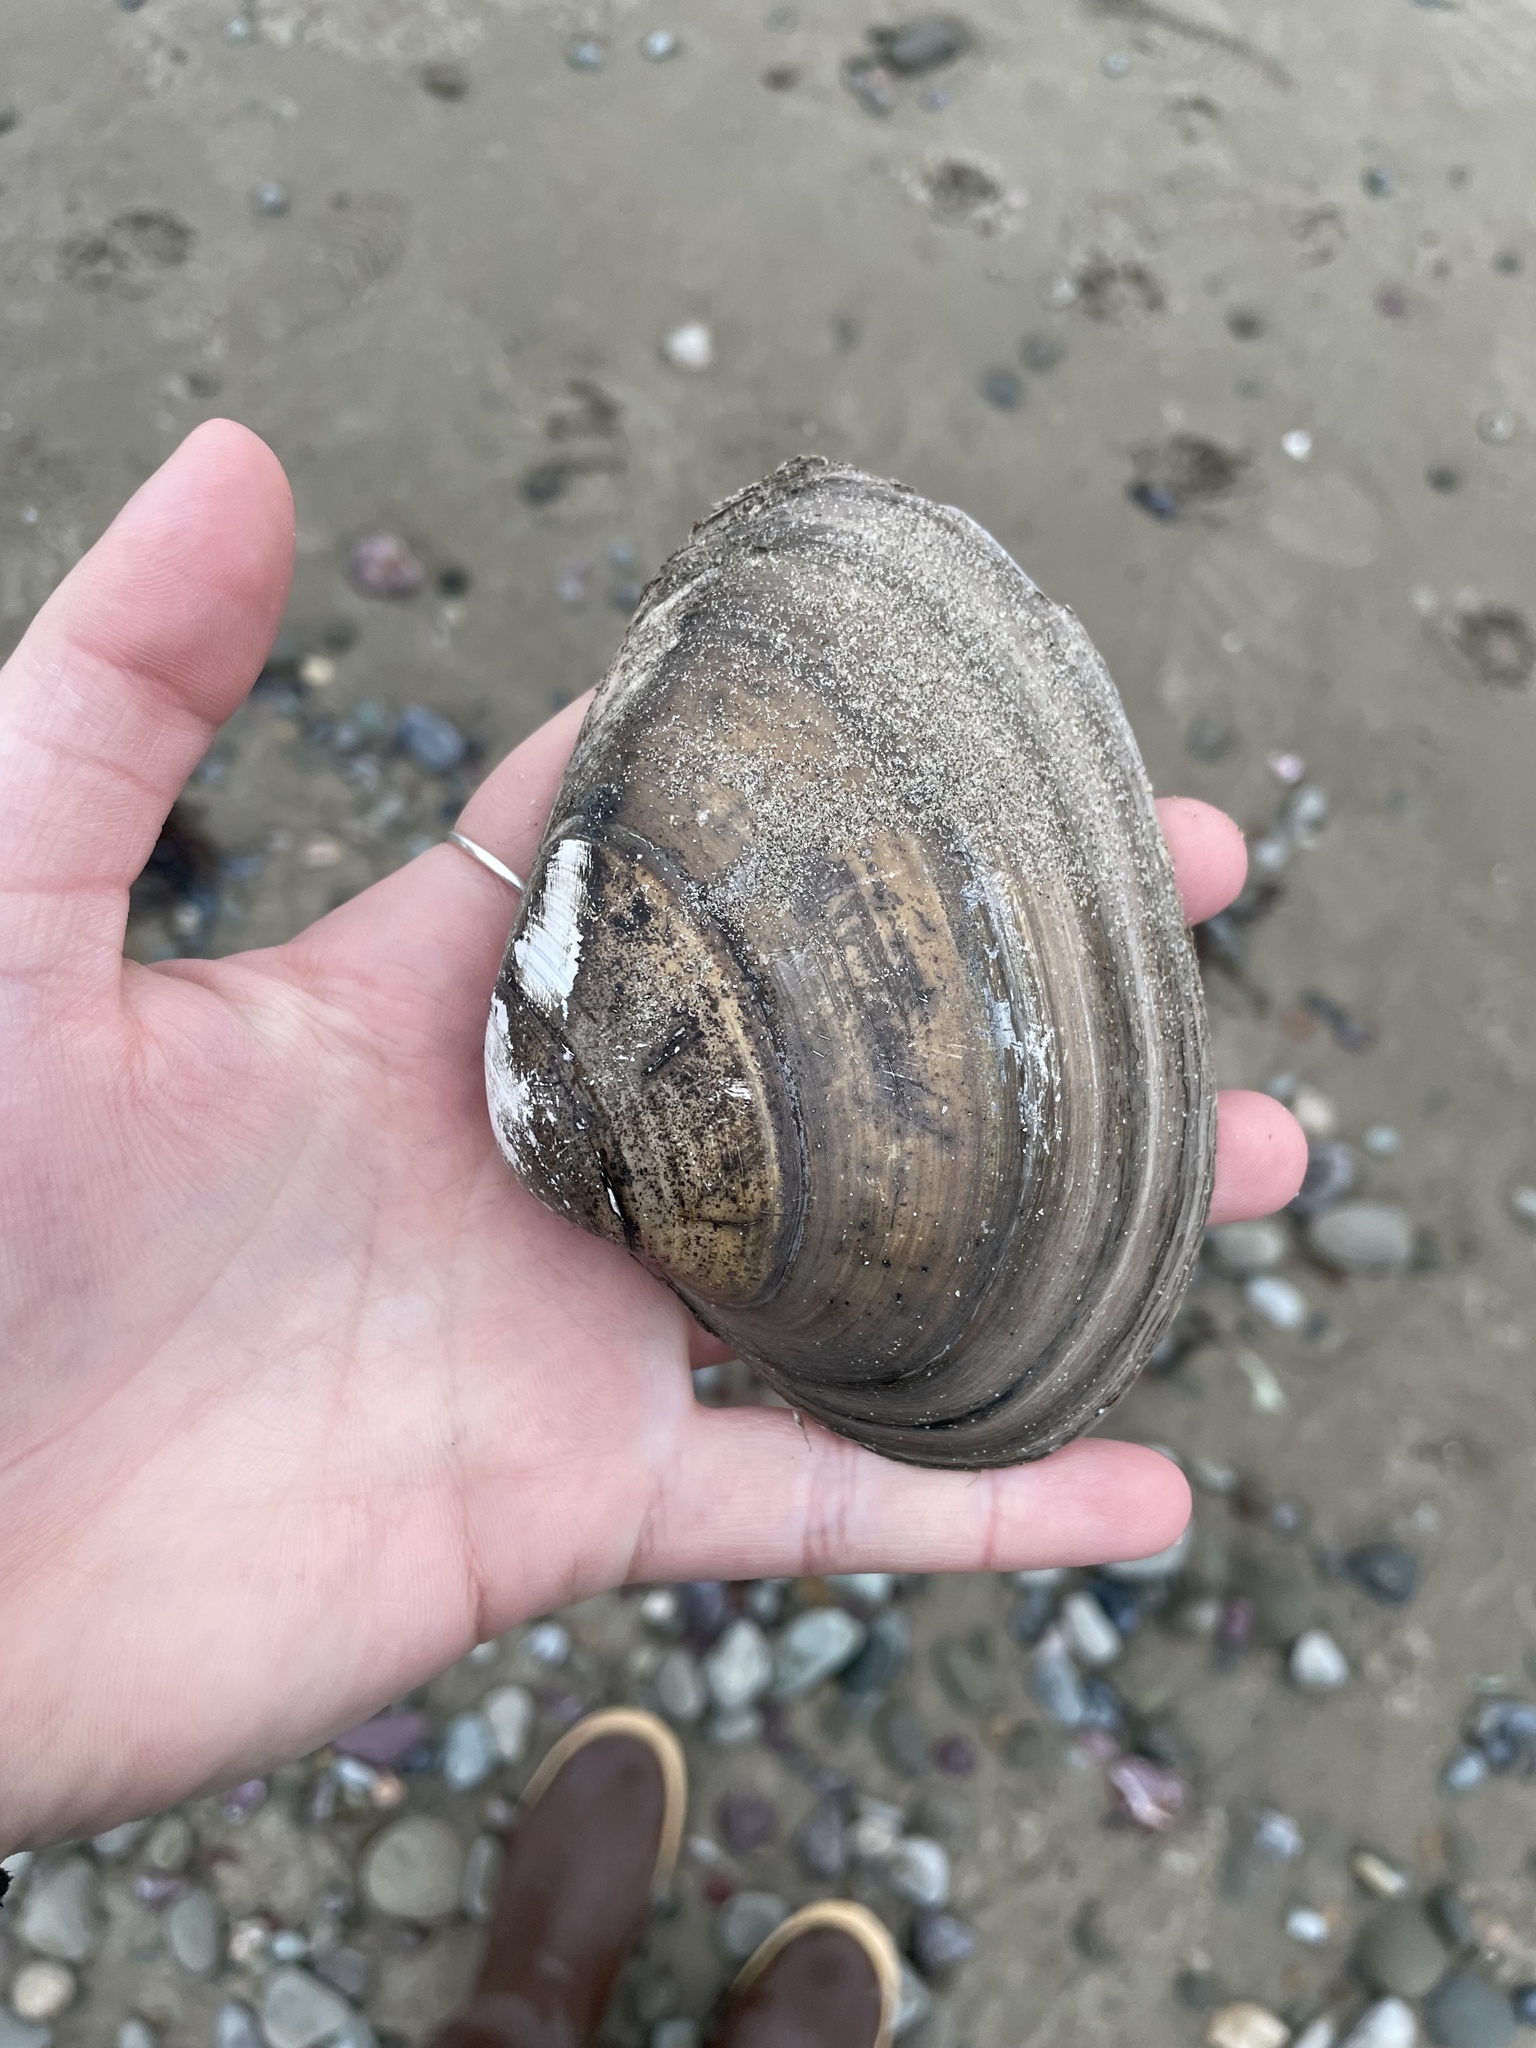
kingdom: Animalia
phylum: Mollusca
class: Bivalvia
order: Venerida
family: Mactridae
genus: Spisula
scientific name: Spisula solidissima
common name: Atlantic surf clam
